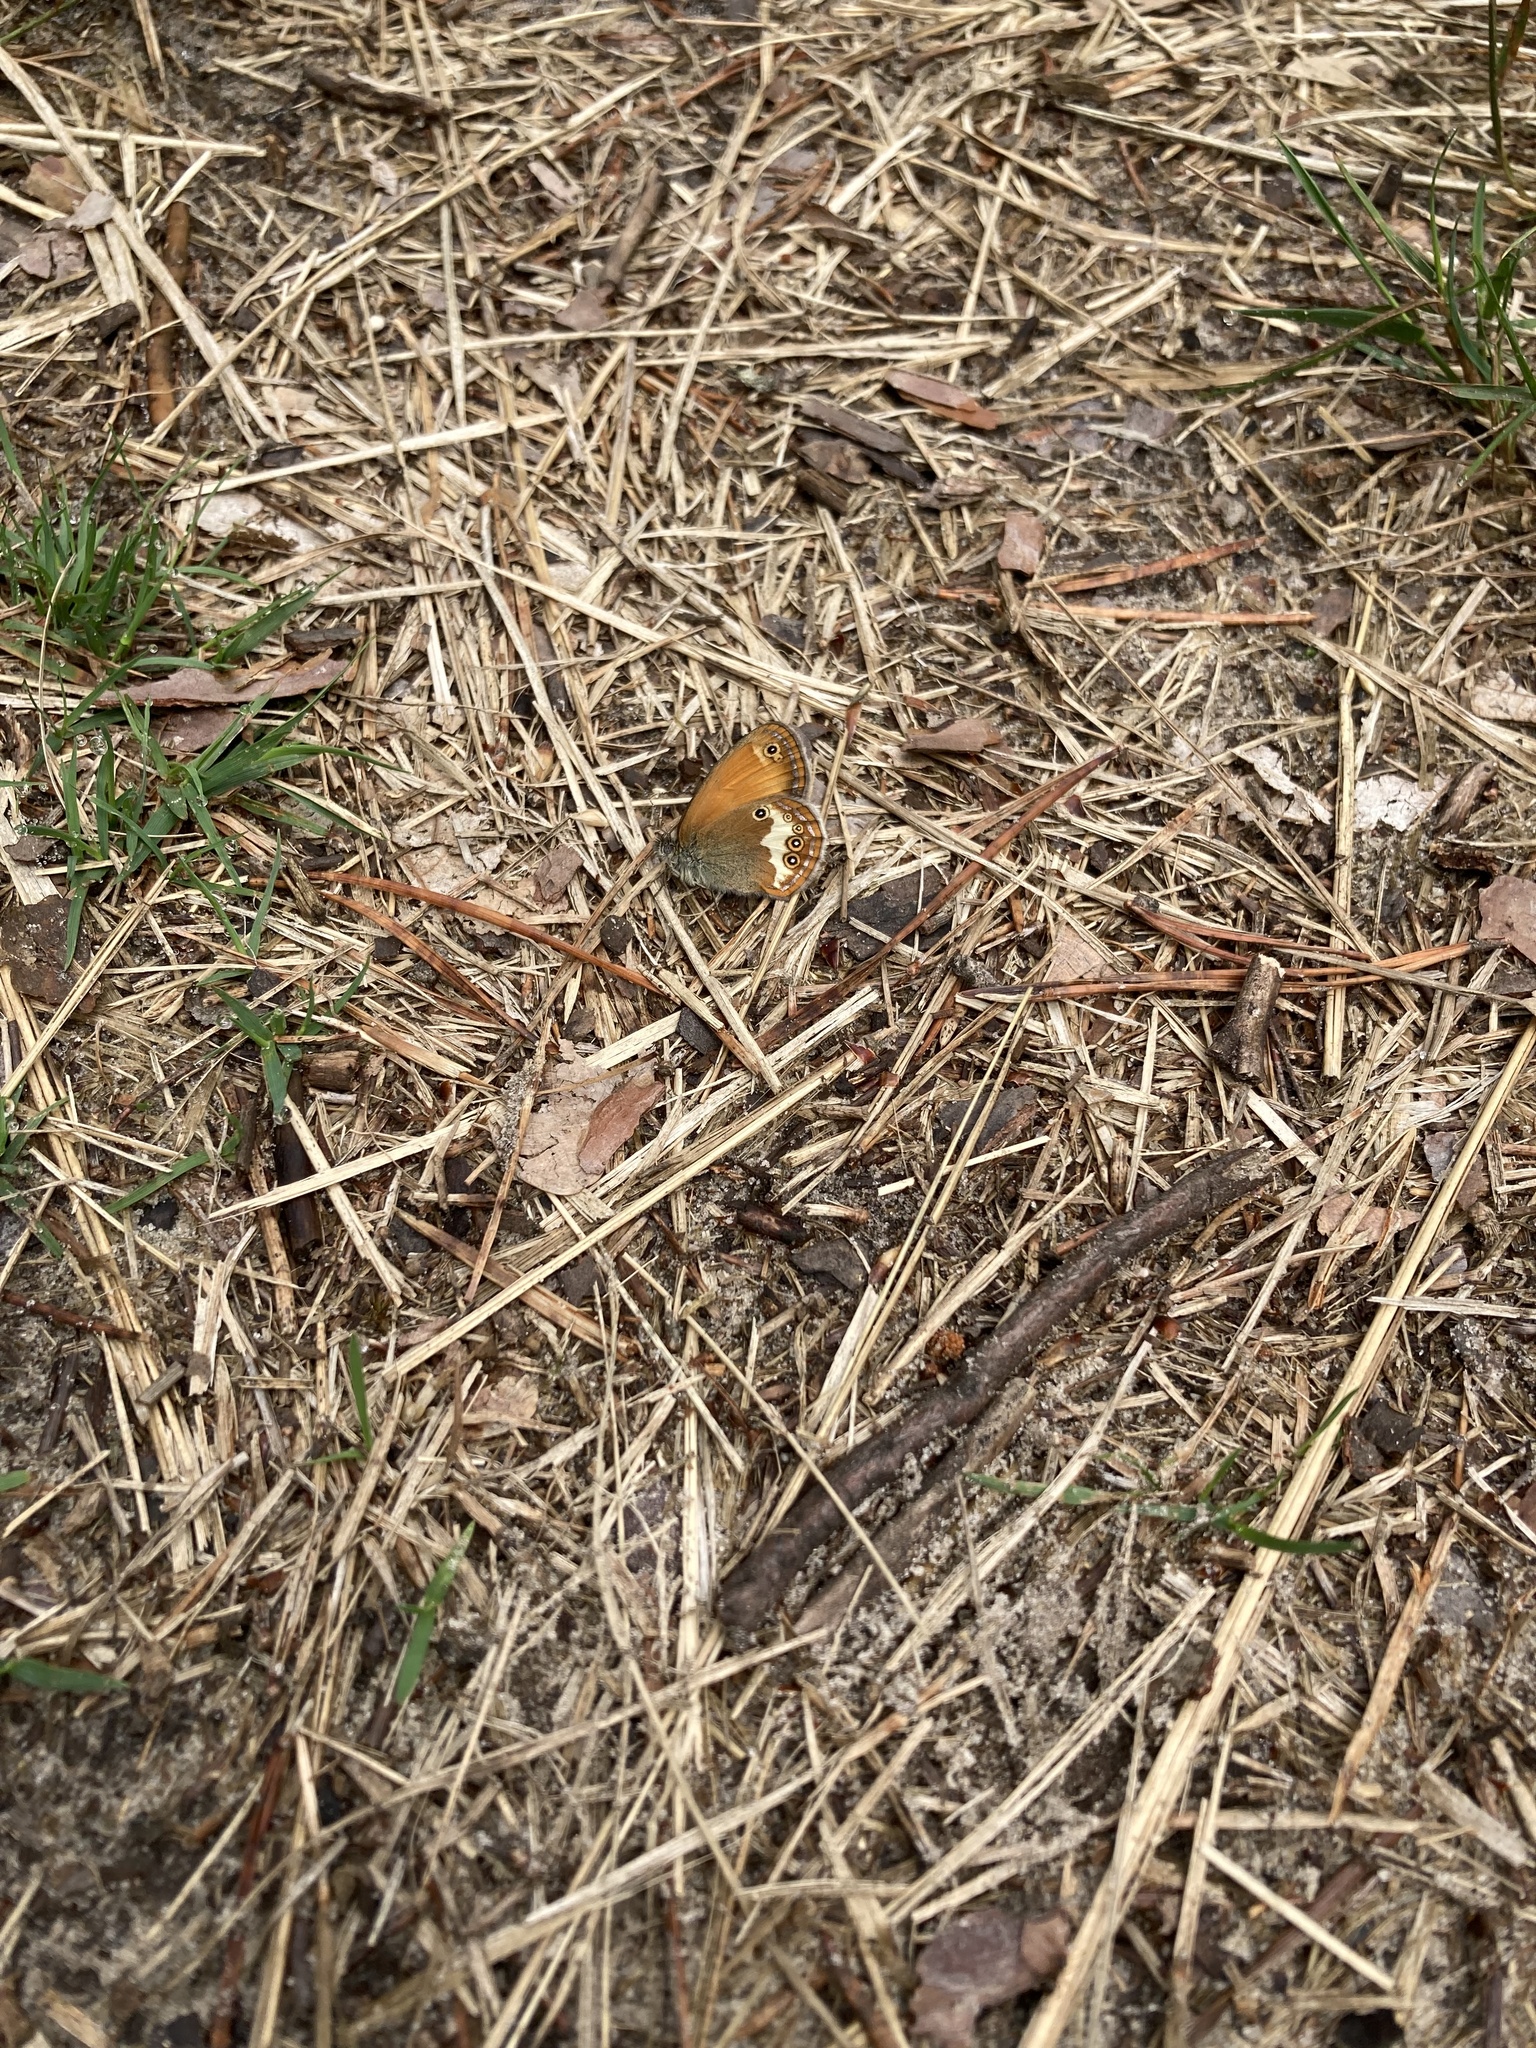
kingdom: Animalia
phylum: Arthropoda
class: Insecta
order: Lepidoptera
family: Nymphalidae
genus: Coenonympha
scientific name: Coenonympha arcania
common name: Pearly heath
